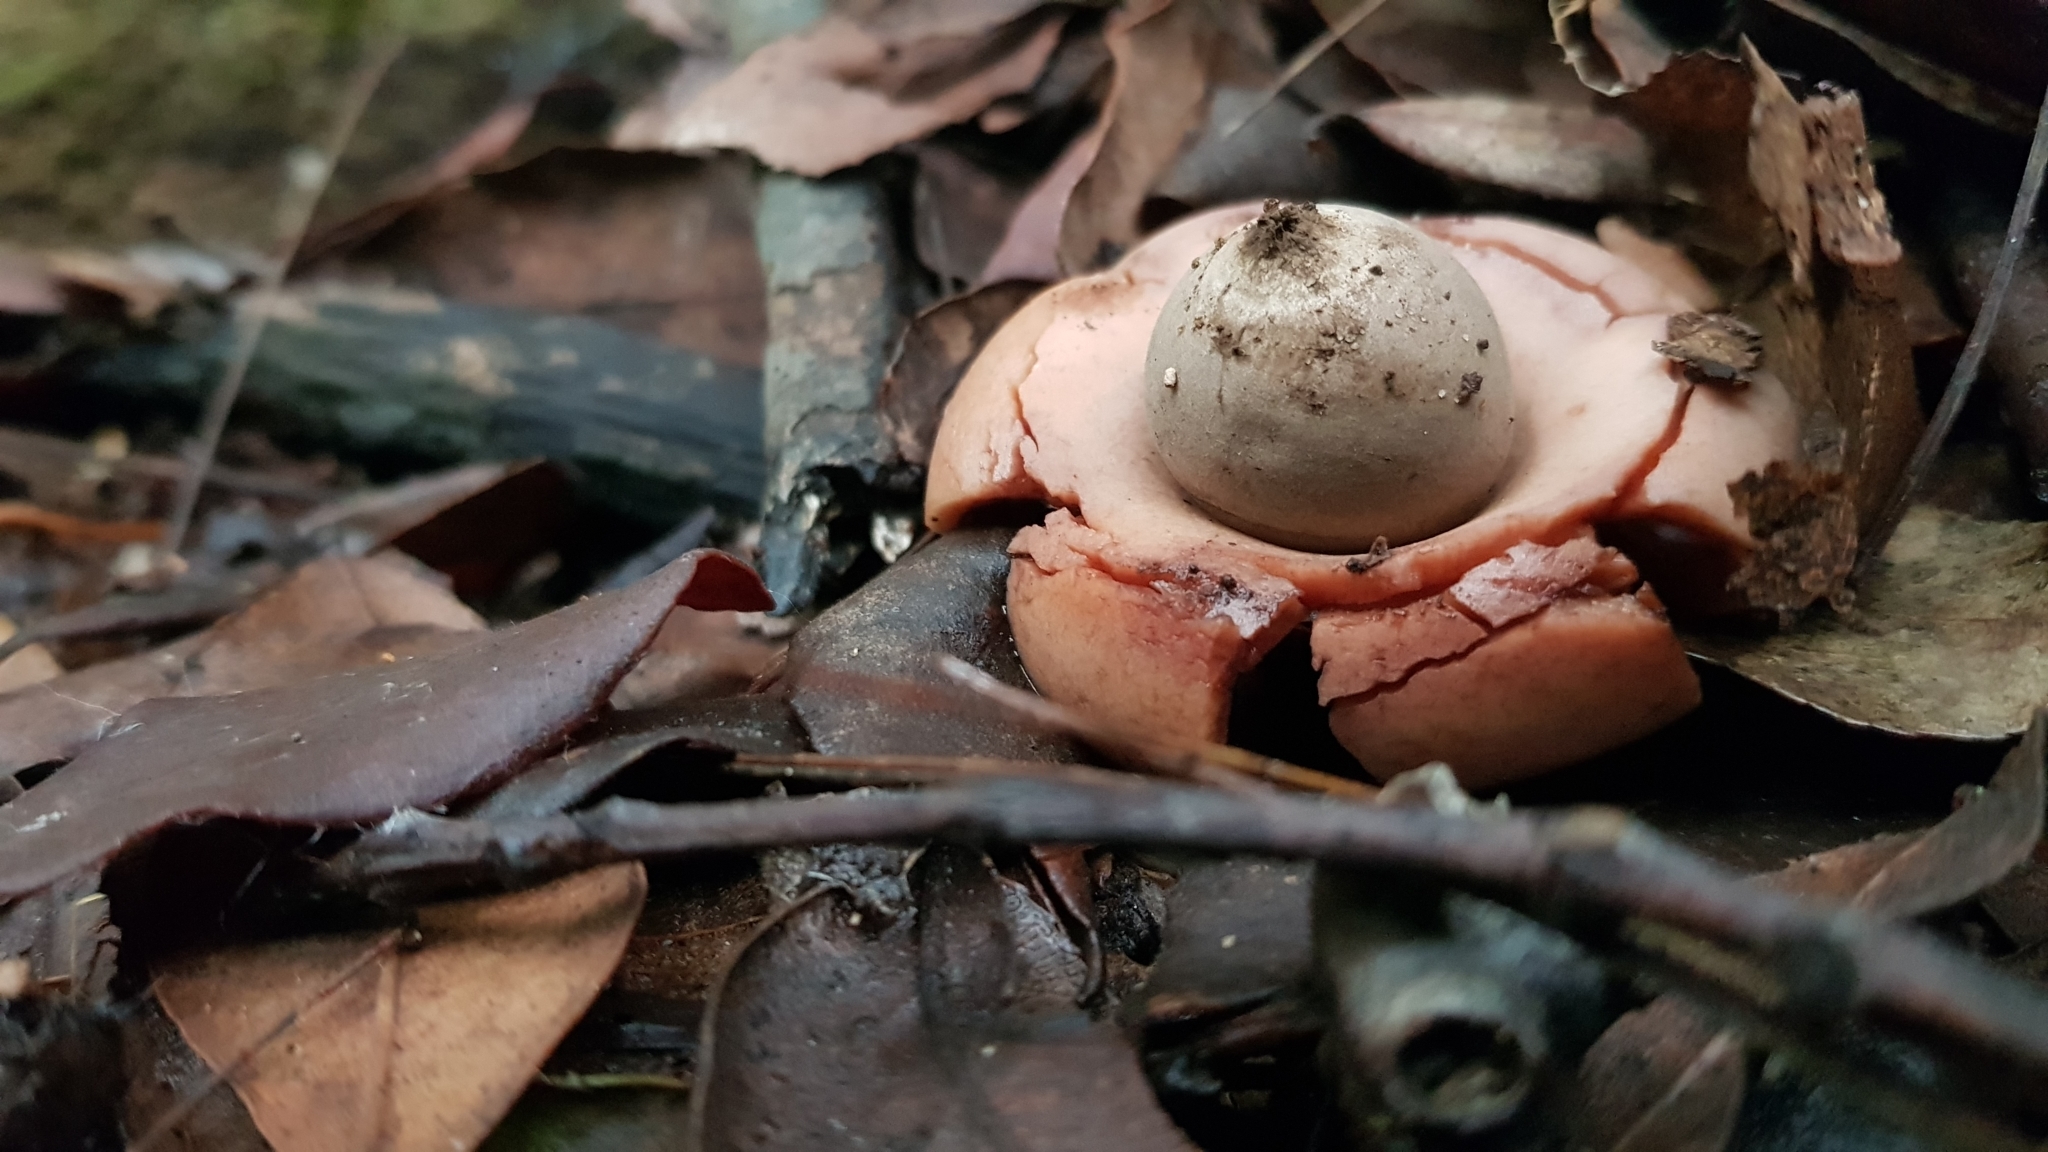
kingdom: Fungi
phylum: Basidiomycota
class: Agaricomycetes
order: Geastrales
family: Geastraceae
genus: Geastrum
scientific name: Geastrum triplex
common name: Collared earthstar
